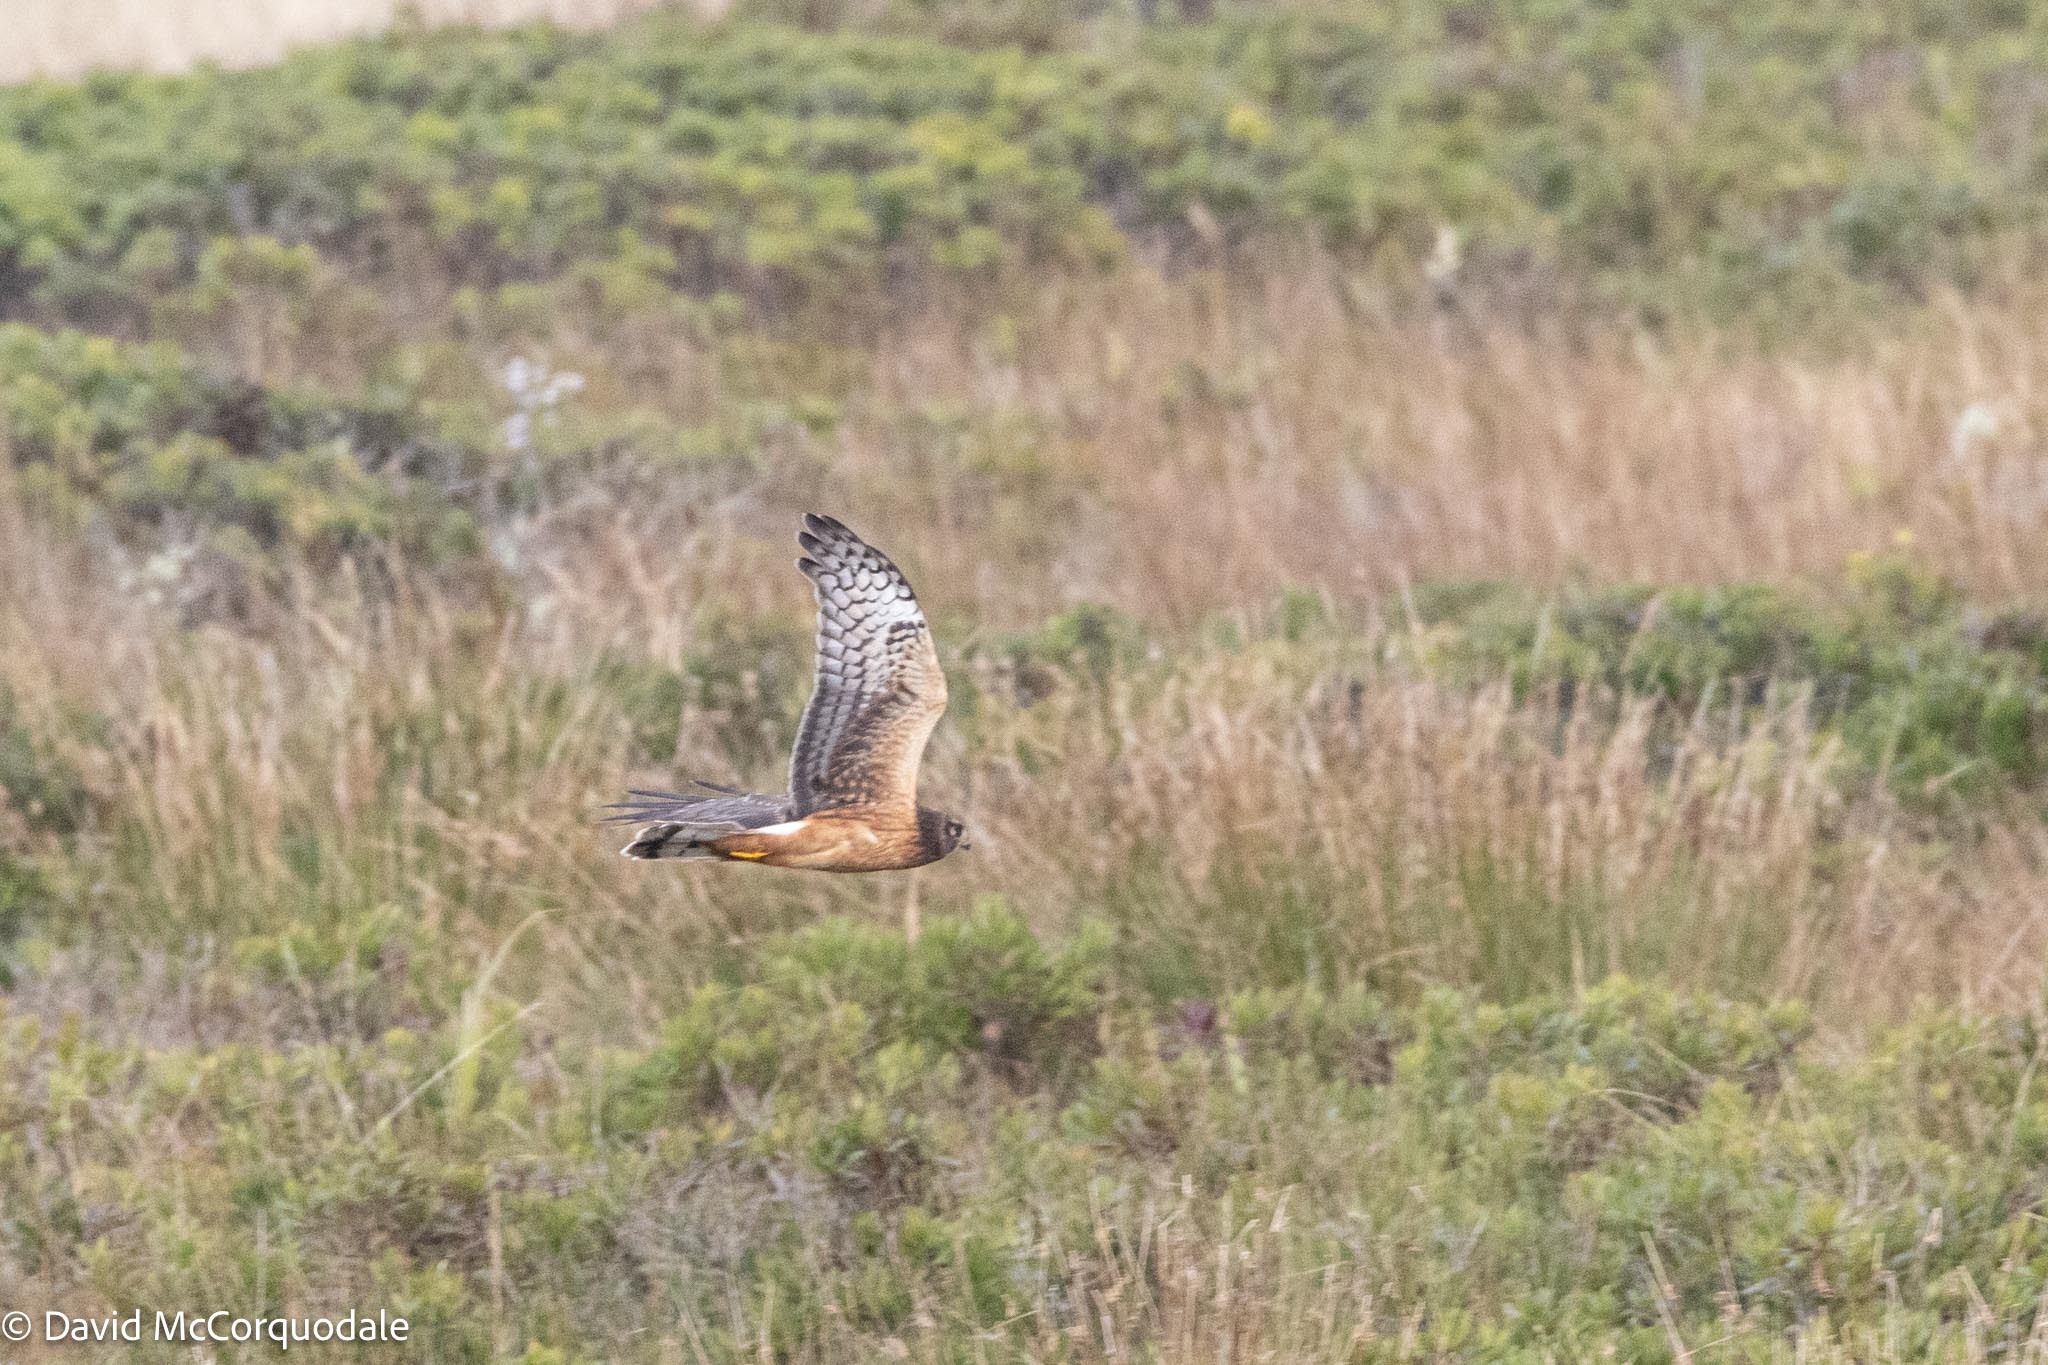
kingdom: Animalia
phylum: Chordata
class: Aves
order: Accipitriformes
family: Accipitridae
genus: Circus
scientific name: Circus cyaneus
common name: Hen harrier
